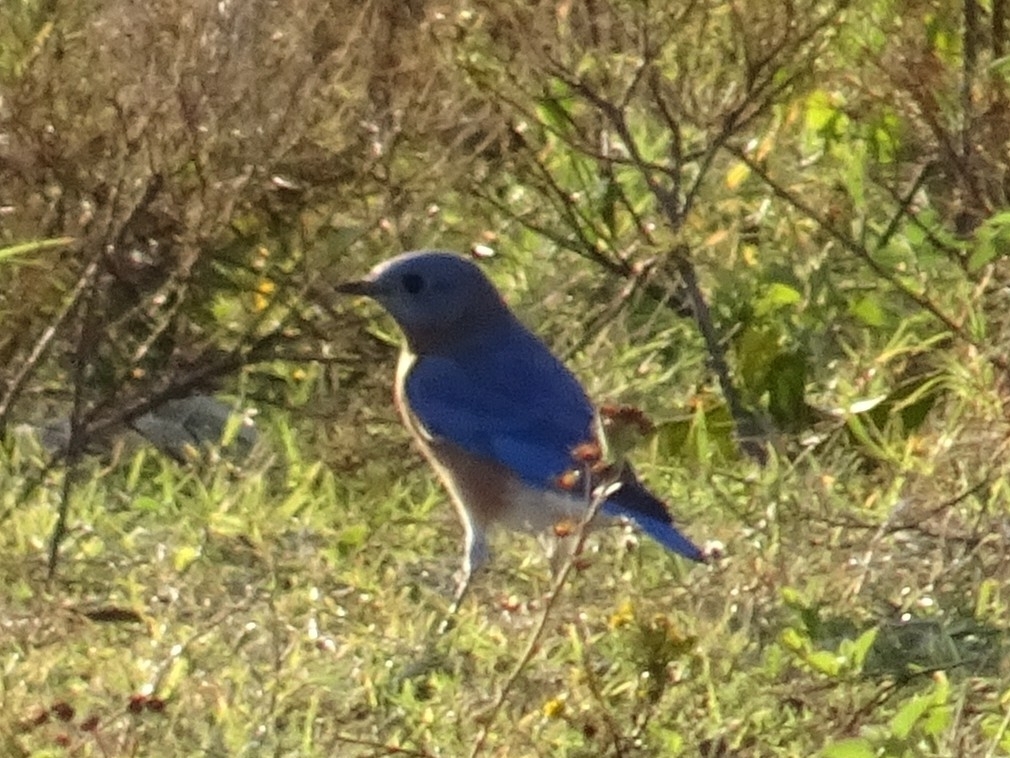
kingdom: Animalia
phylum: Chordata
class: Aves
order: Passeriformes
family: Turdidae
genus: Sialia
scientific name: Sialia sialis
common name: Eastern bluebird
